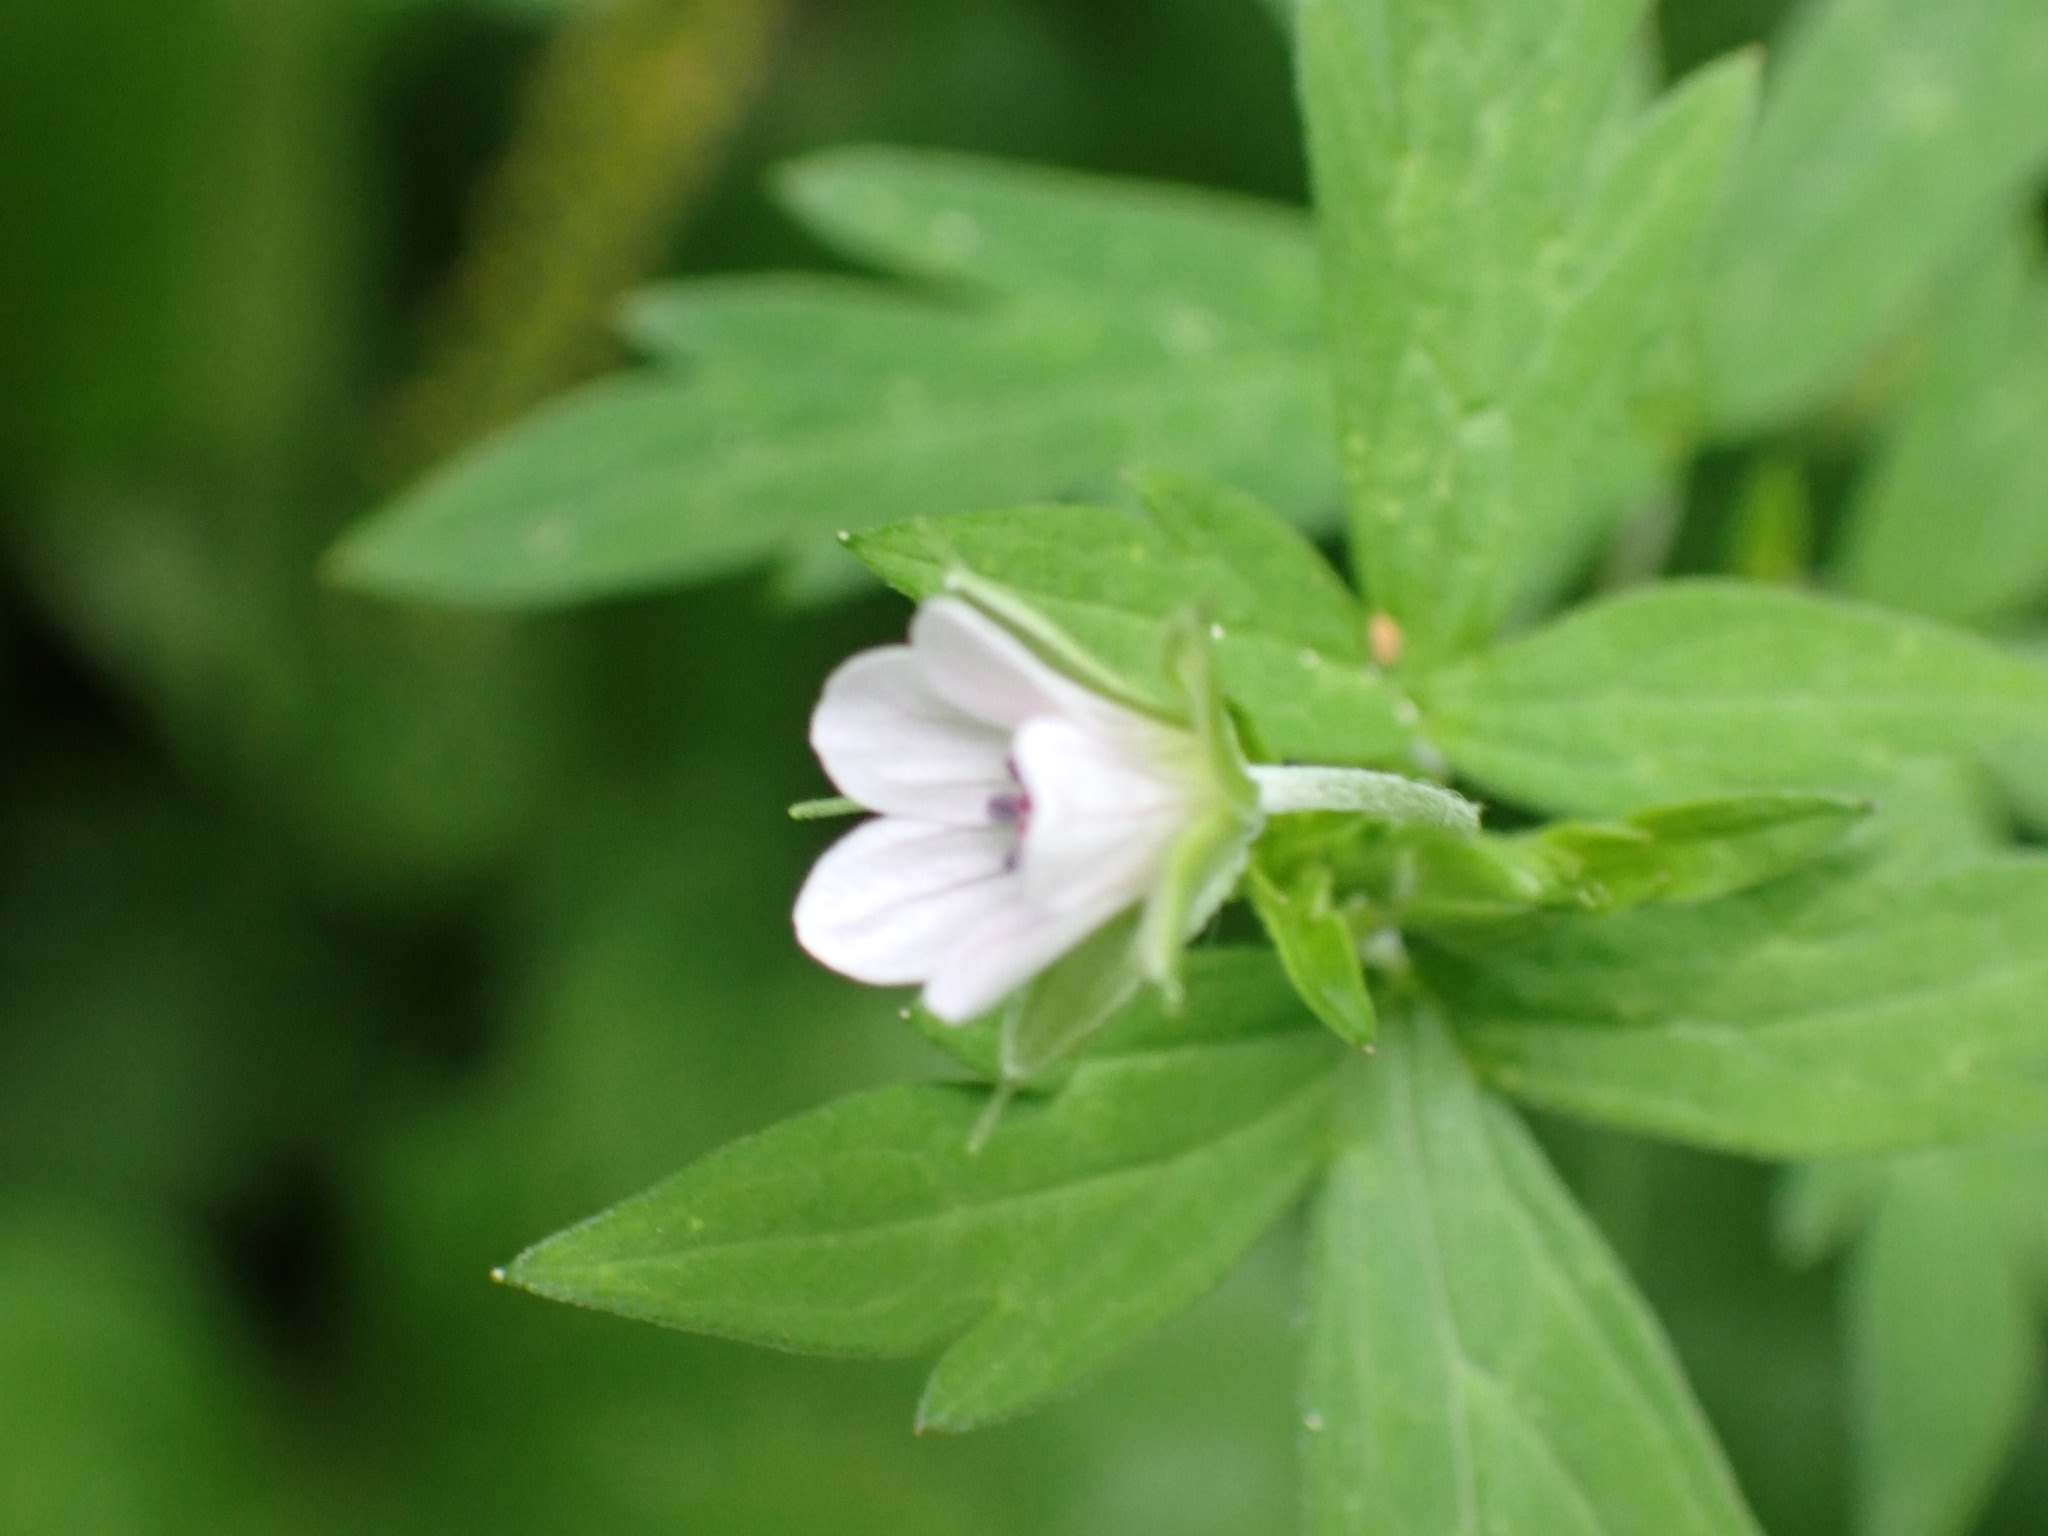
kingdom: Plantae
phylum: Tracheophyta
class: Magnoliopsida
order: Geraniales
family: Geraniaceae
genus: Geranium
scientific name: Geranium sibiricum
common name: Siberian crane's-bill
